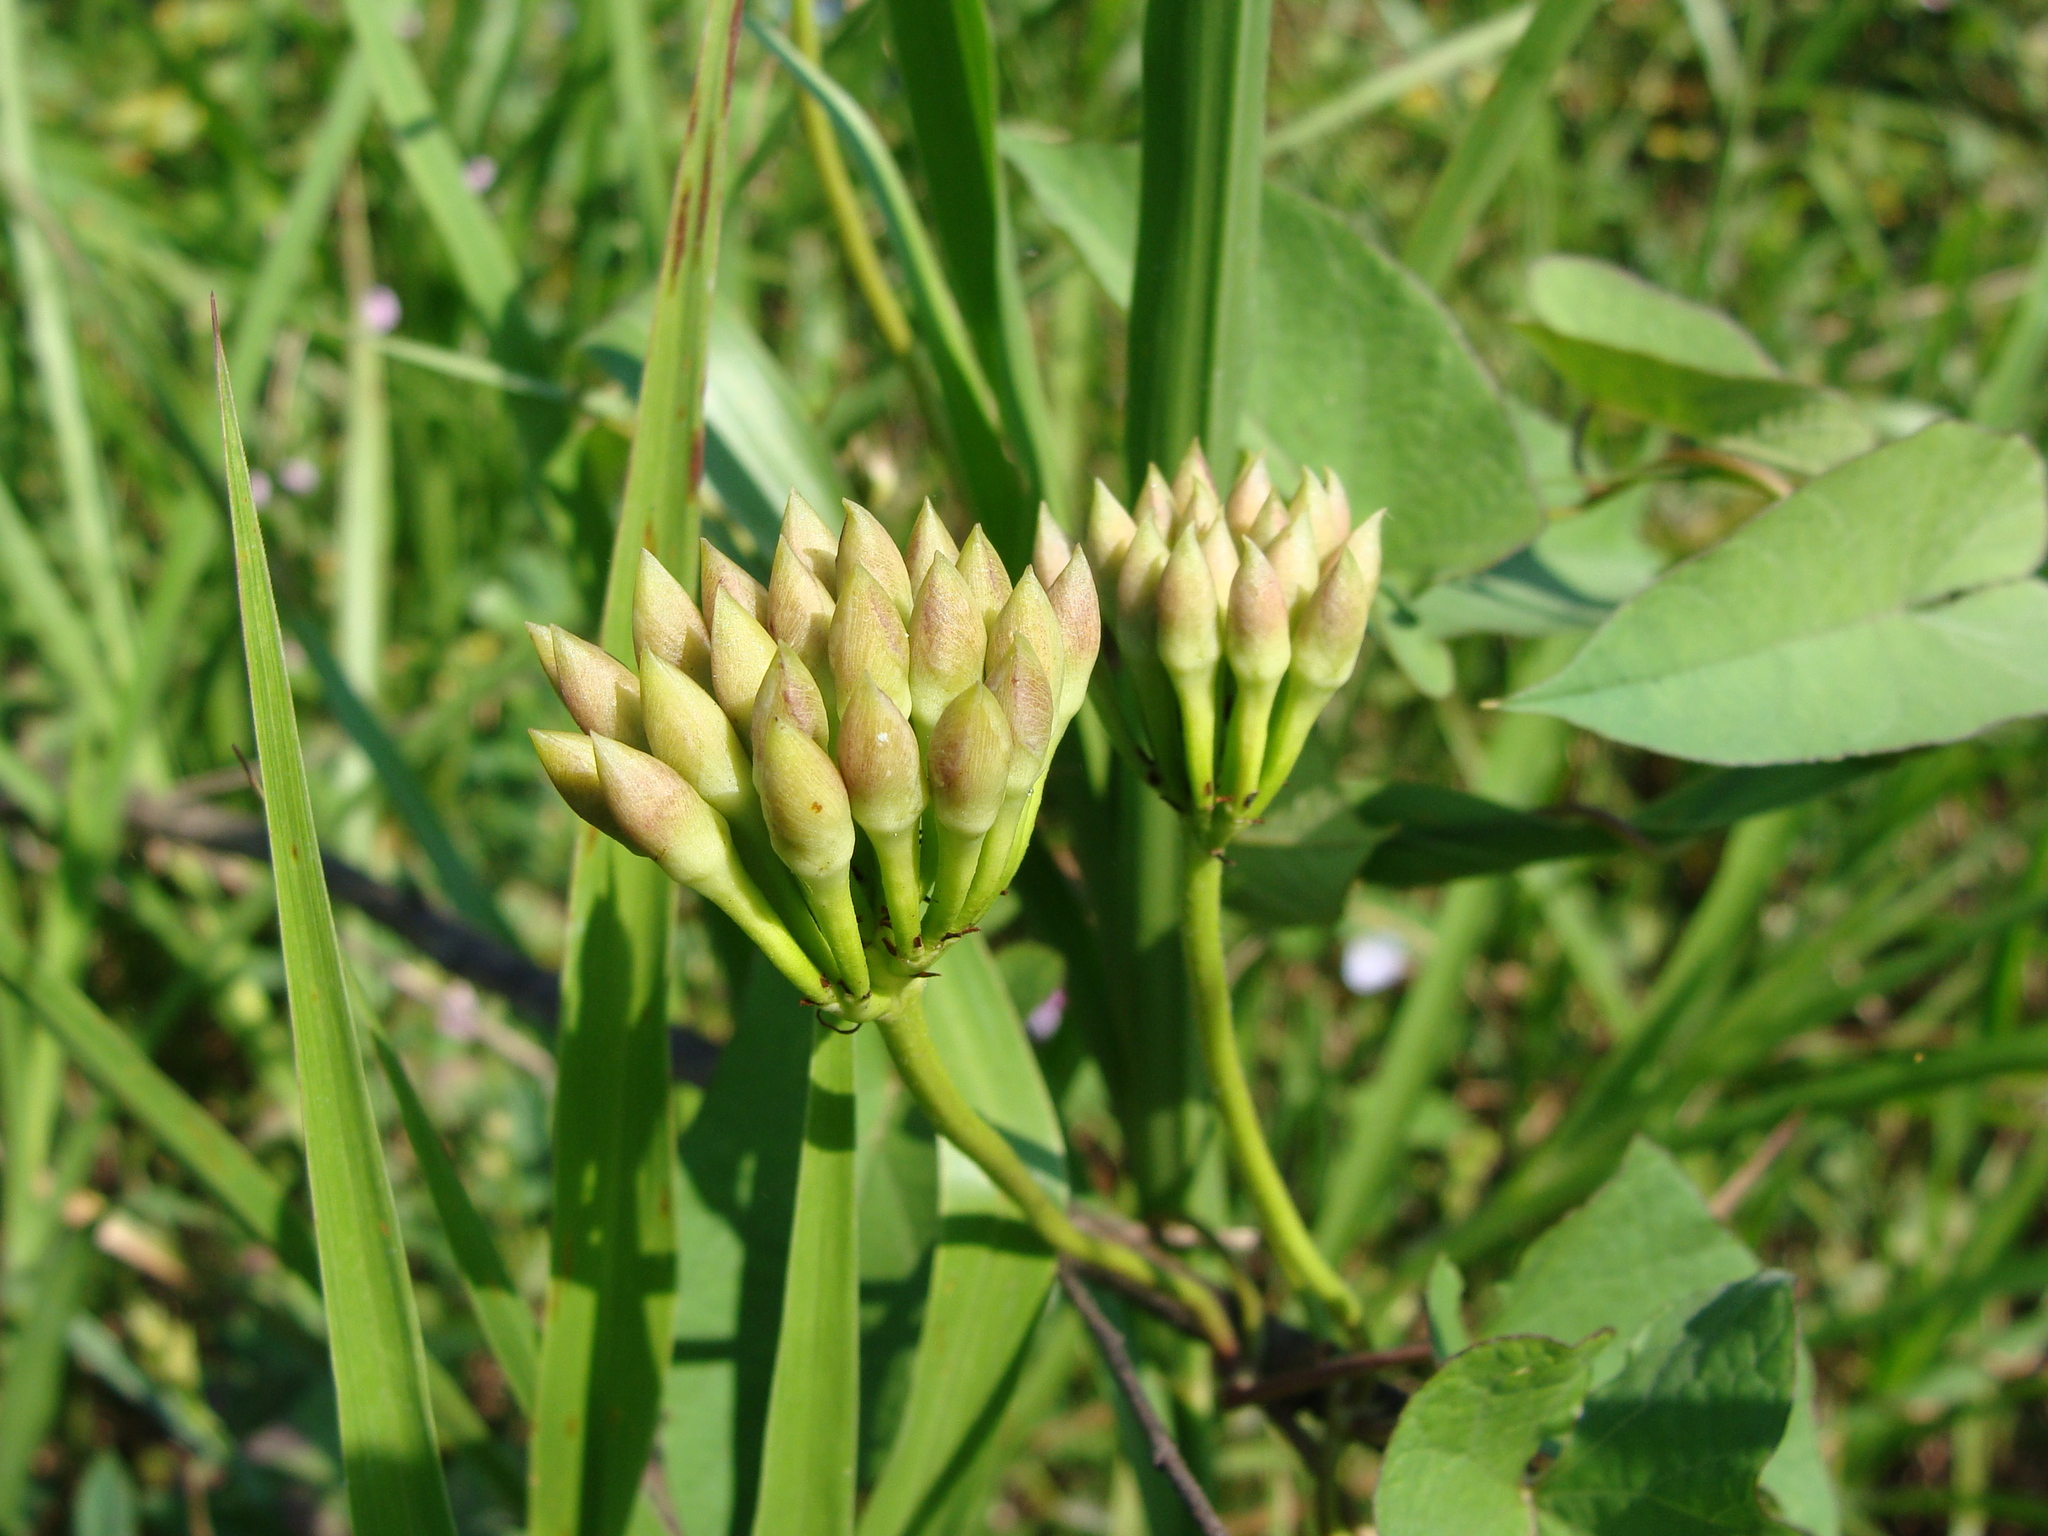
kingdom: Plantae
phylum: Tracheophyta
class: Magnoliopsida
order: Solanales
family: Convolvulaceae
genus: Camonea
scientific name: Camonea umbellata
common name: Hogvine
